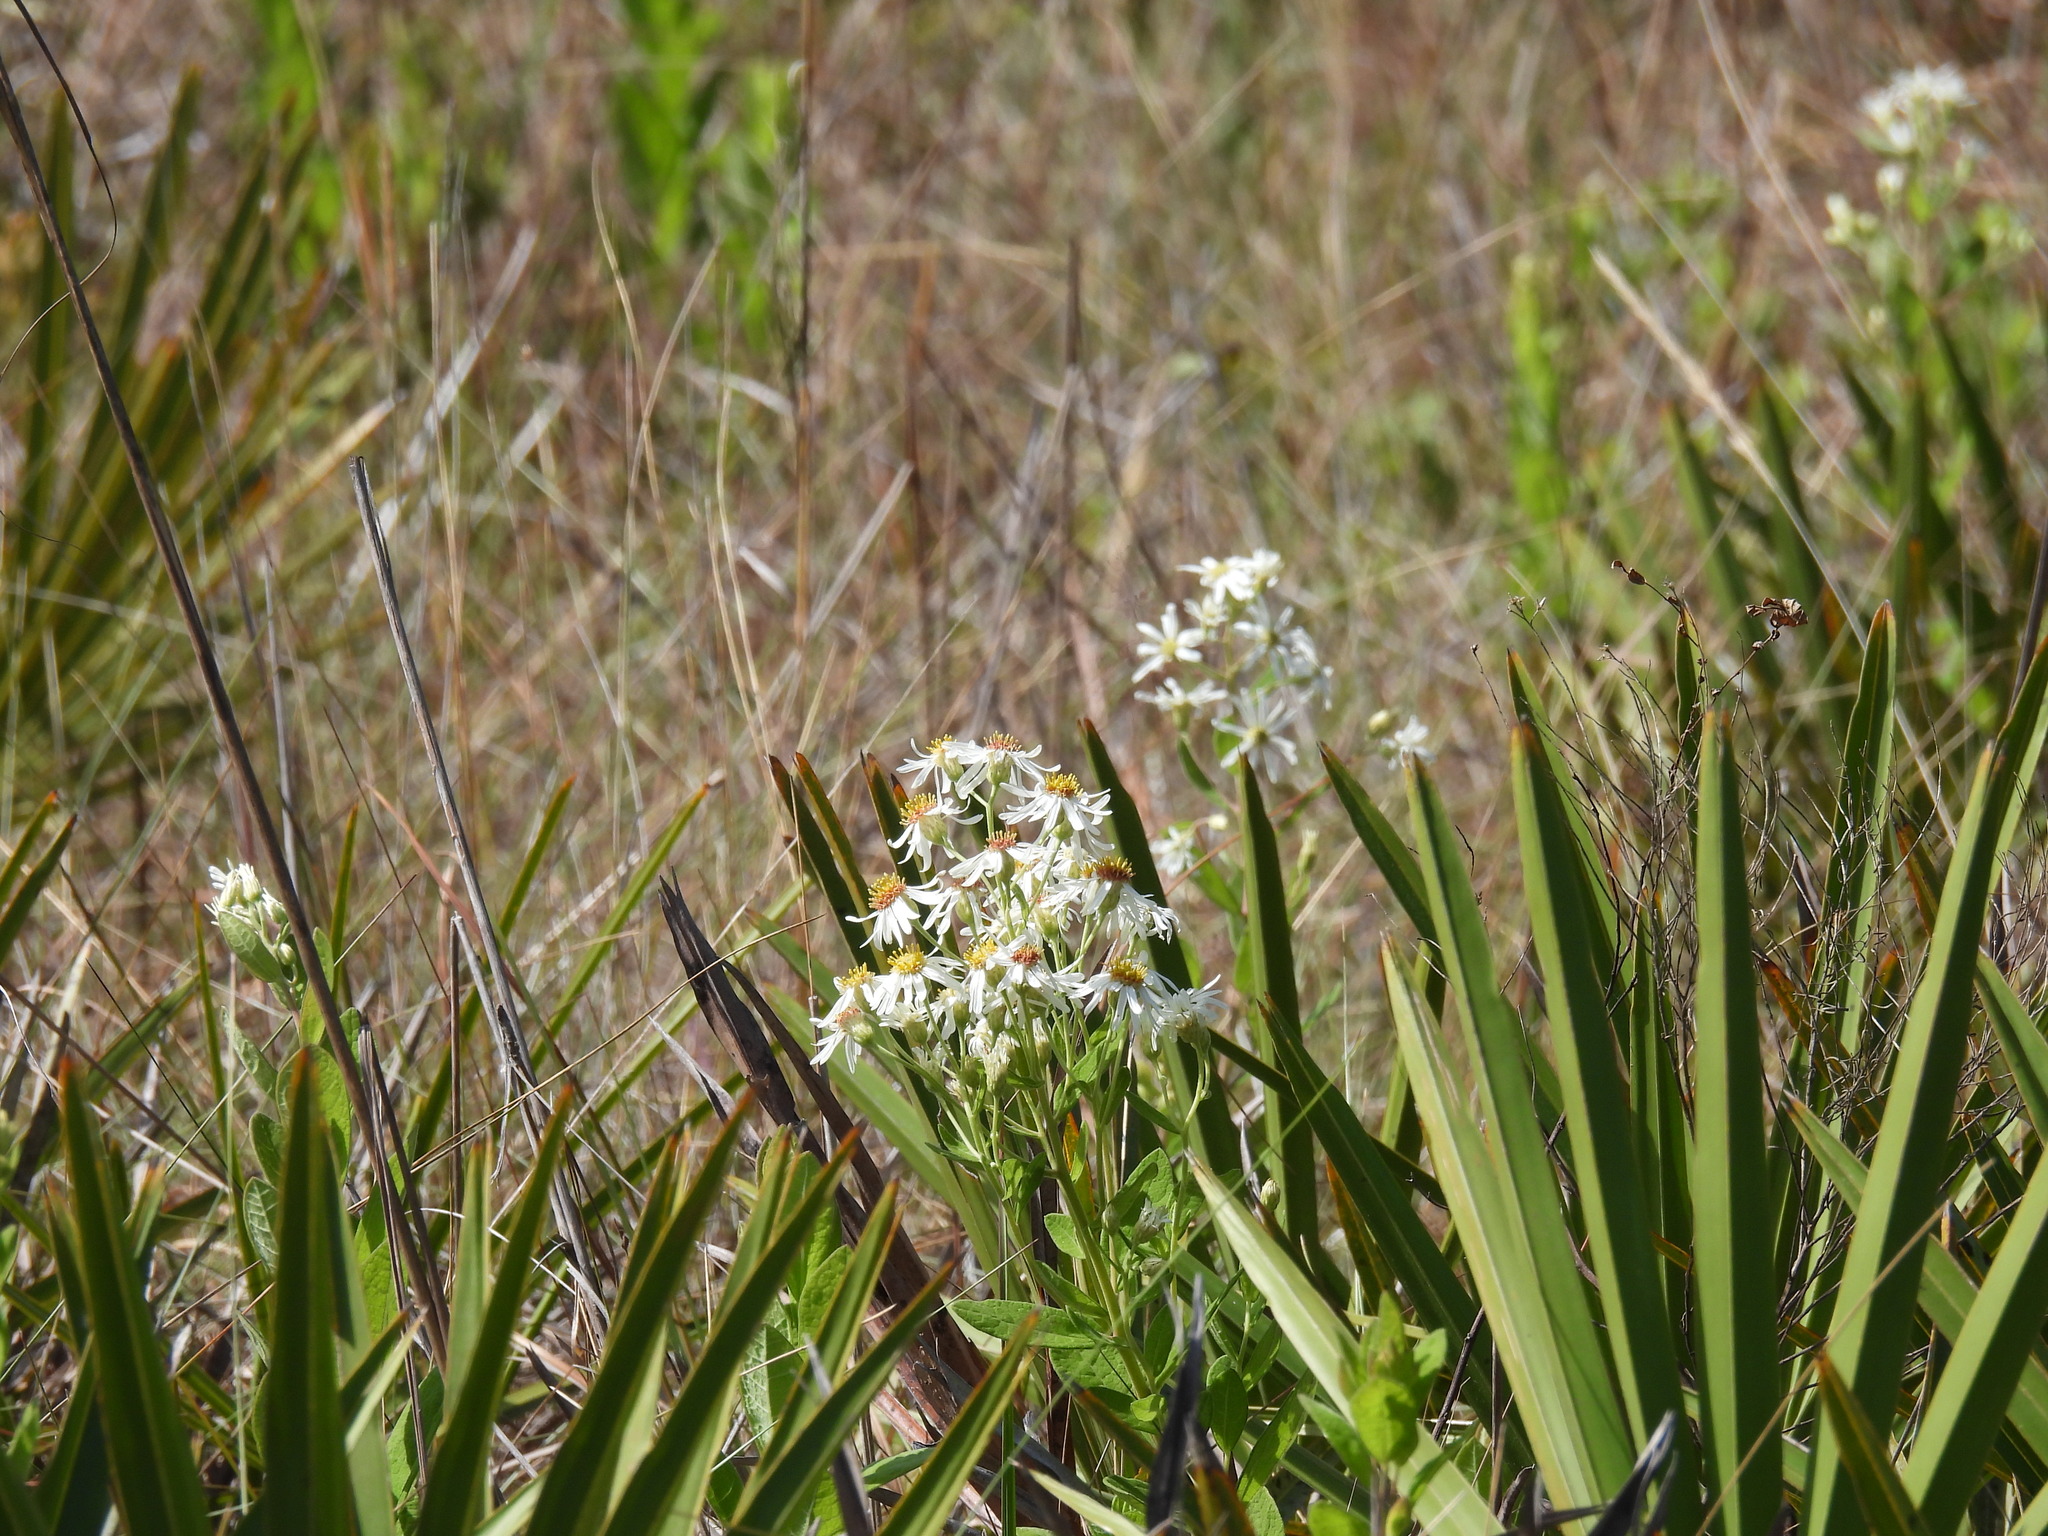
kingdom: Plantae
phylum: Tracheophyta
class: Magnoliopsida
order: Asterales
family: Asteraceae
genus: Oclemena
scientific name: Oclemena reticulata
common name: Pinebarren aster
